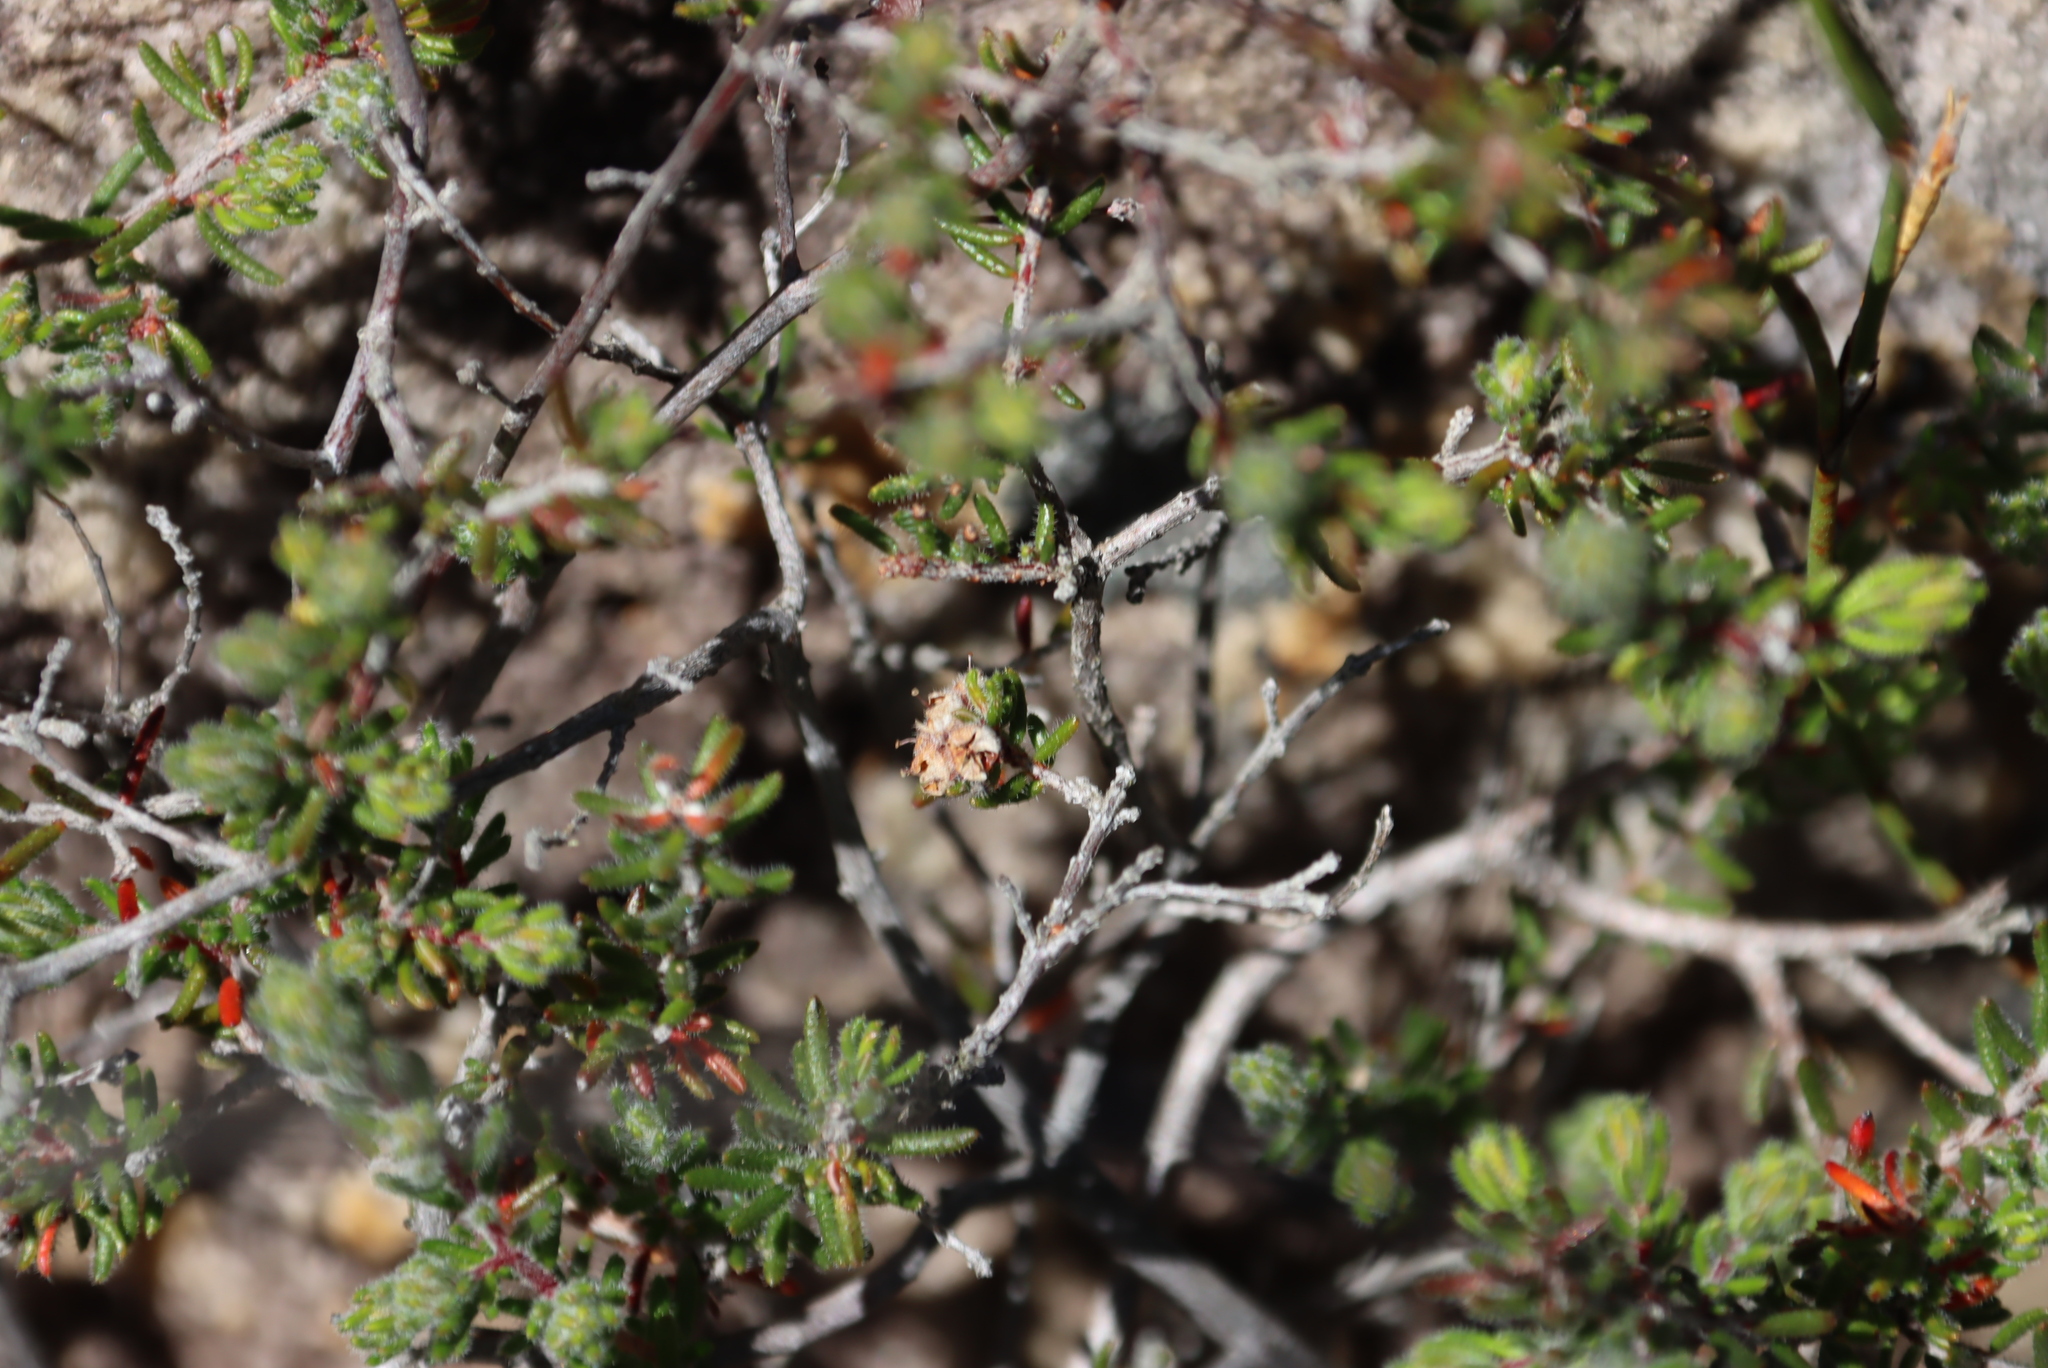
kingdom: Plantae
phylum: Tracheophyta
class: Magnoliopsida
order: Ericales
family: Ericaceae
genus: Erica
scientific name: Erica distorta
